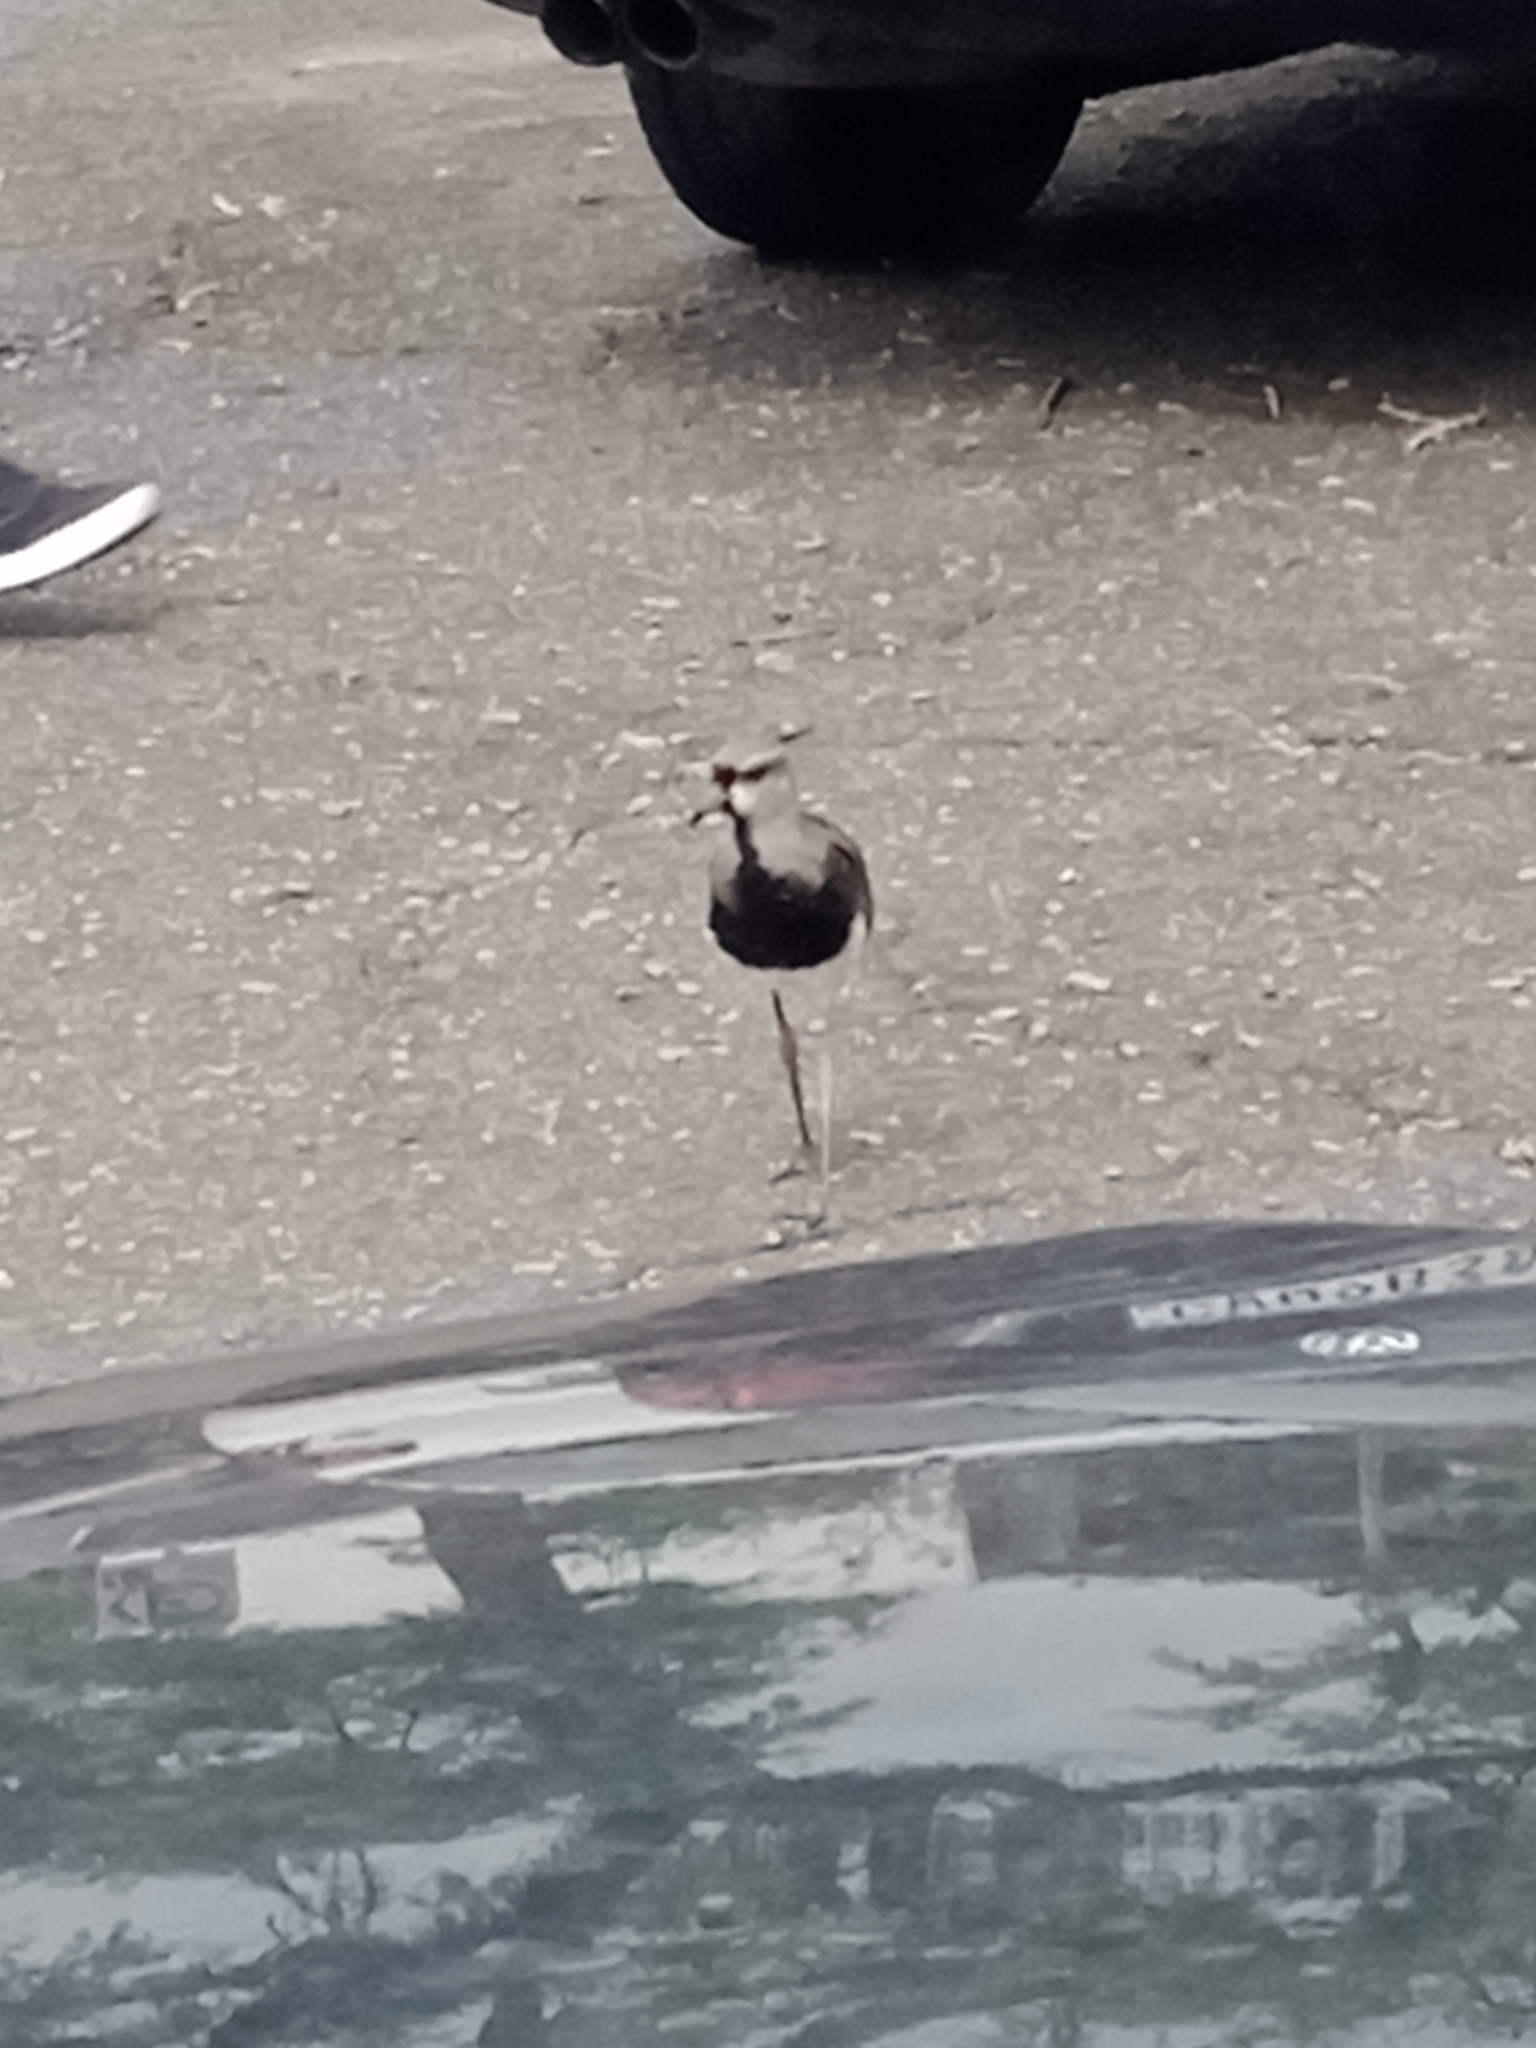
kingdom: Animalia
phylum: Chordata
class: Aves
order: Charadriiformes
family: Charadriidae
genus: Vanellus
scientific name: Vanellus chilensis
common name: Southern lapwing
